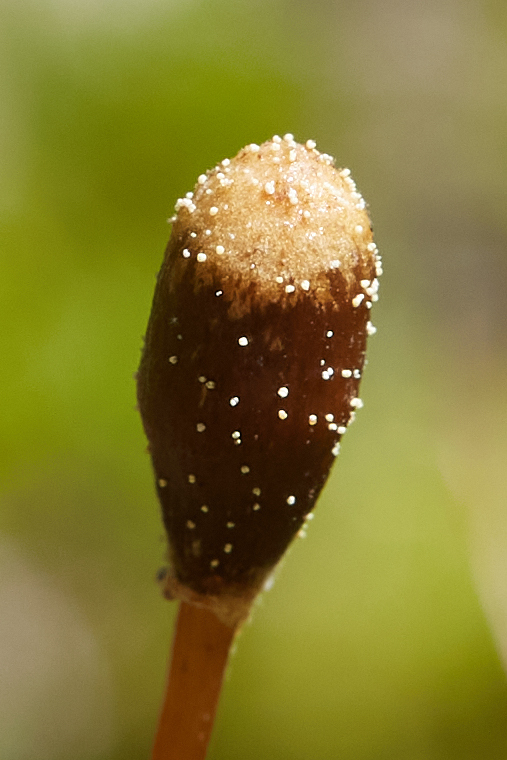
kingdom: Fungi
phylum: Basidiomycota
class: Agaricomycetes
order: Agaricales
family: Bolbitiaceae
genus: Galeropsis
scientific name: Galeropsis polytrichoides
